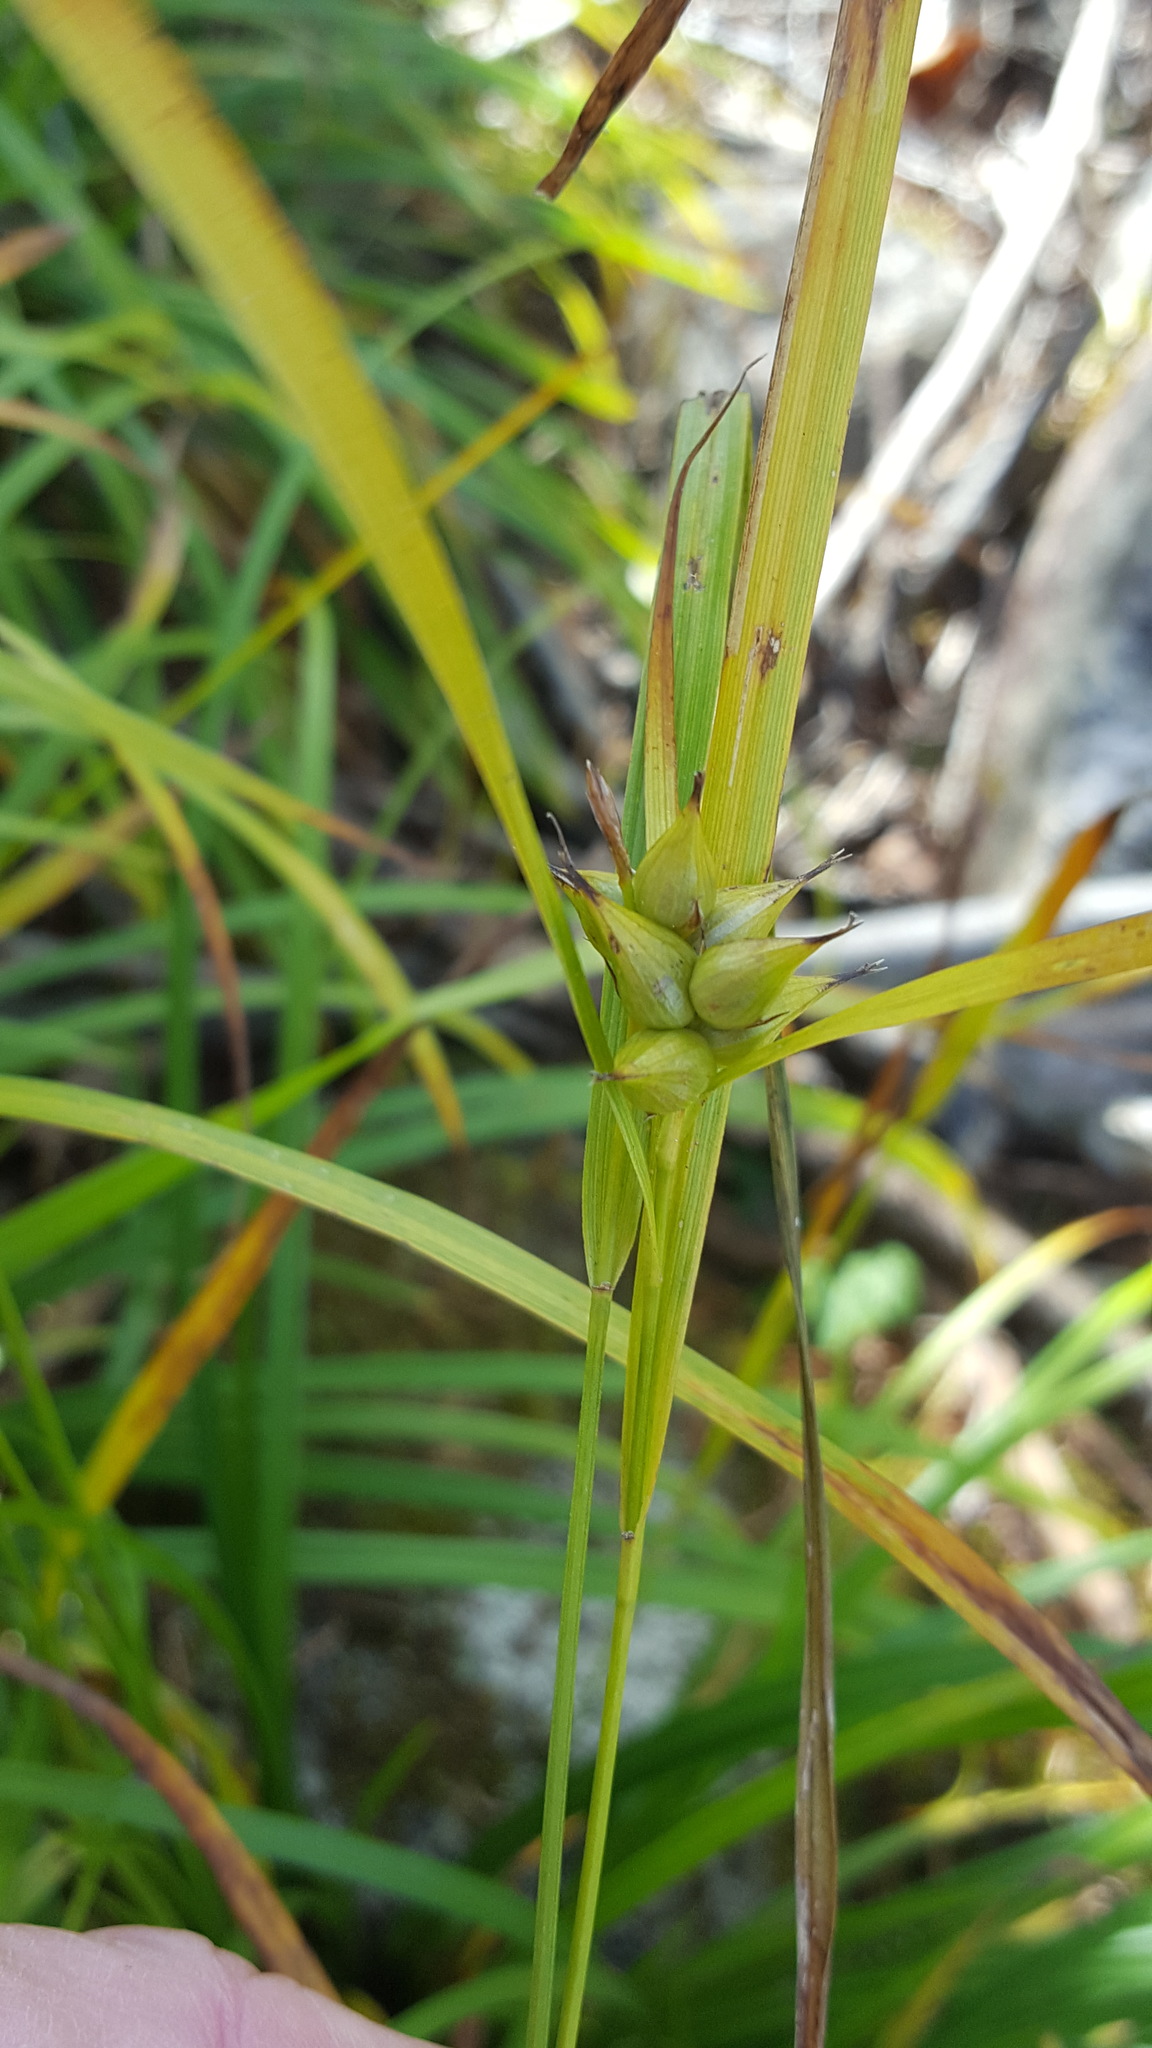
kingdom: Plantae
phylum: Tracheophyta
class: Liliopsida
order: Poales
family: Cyperaceae
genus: Carex
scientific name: Carex intumescens
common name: Greater bladder sedge
